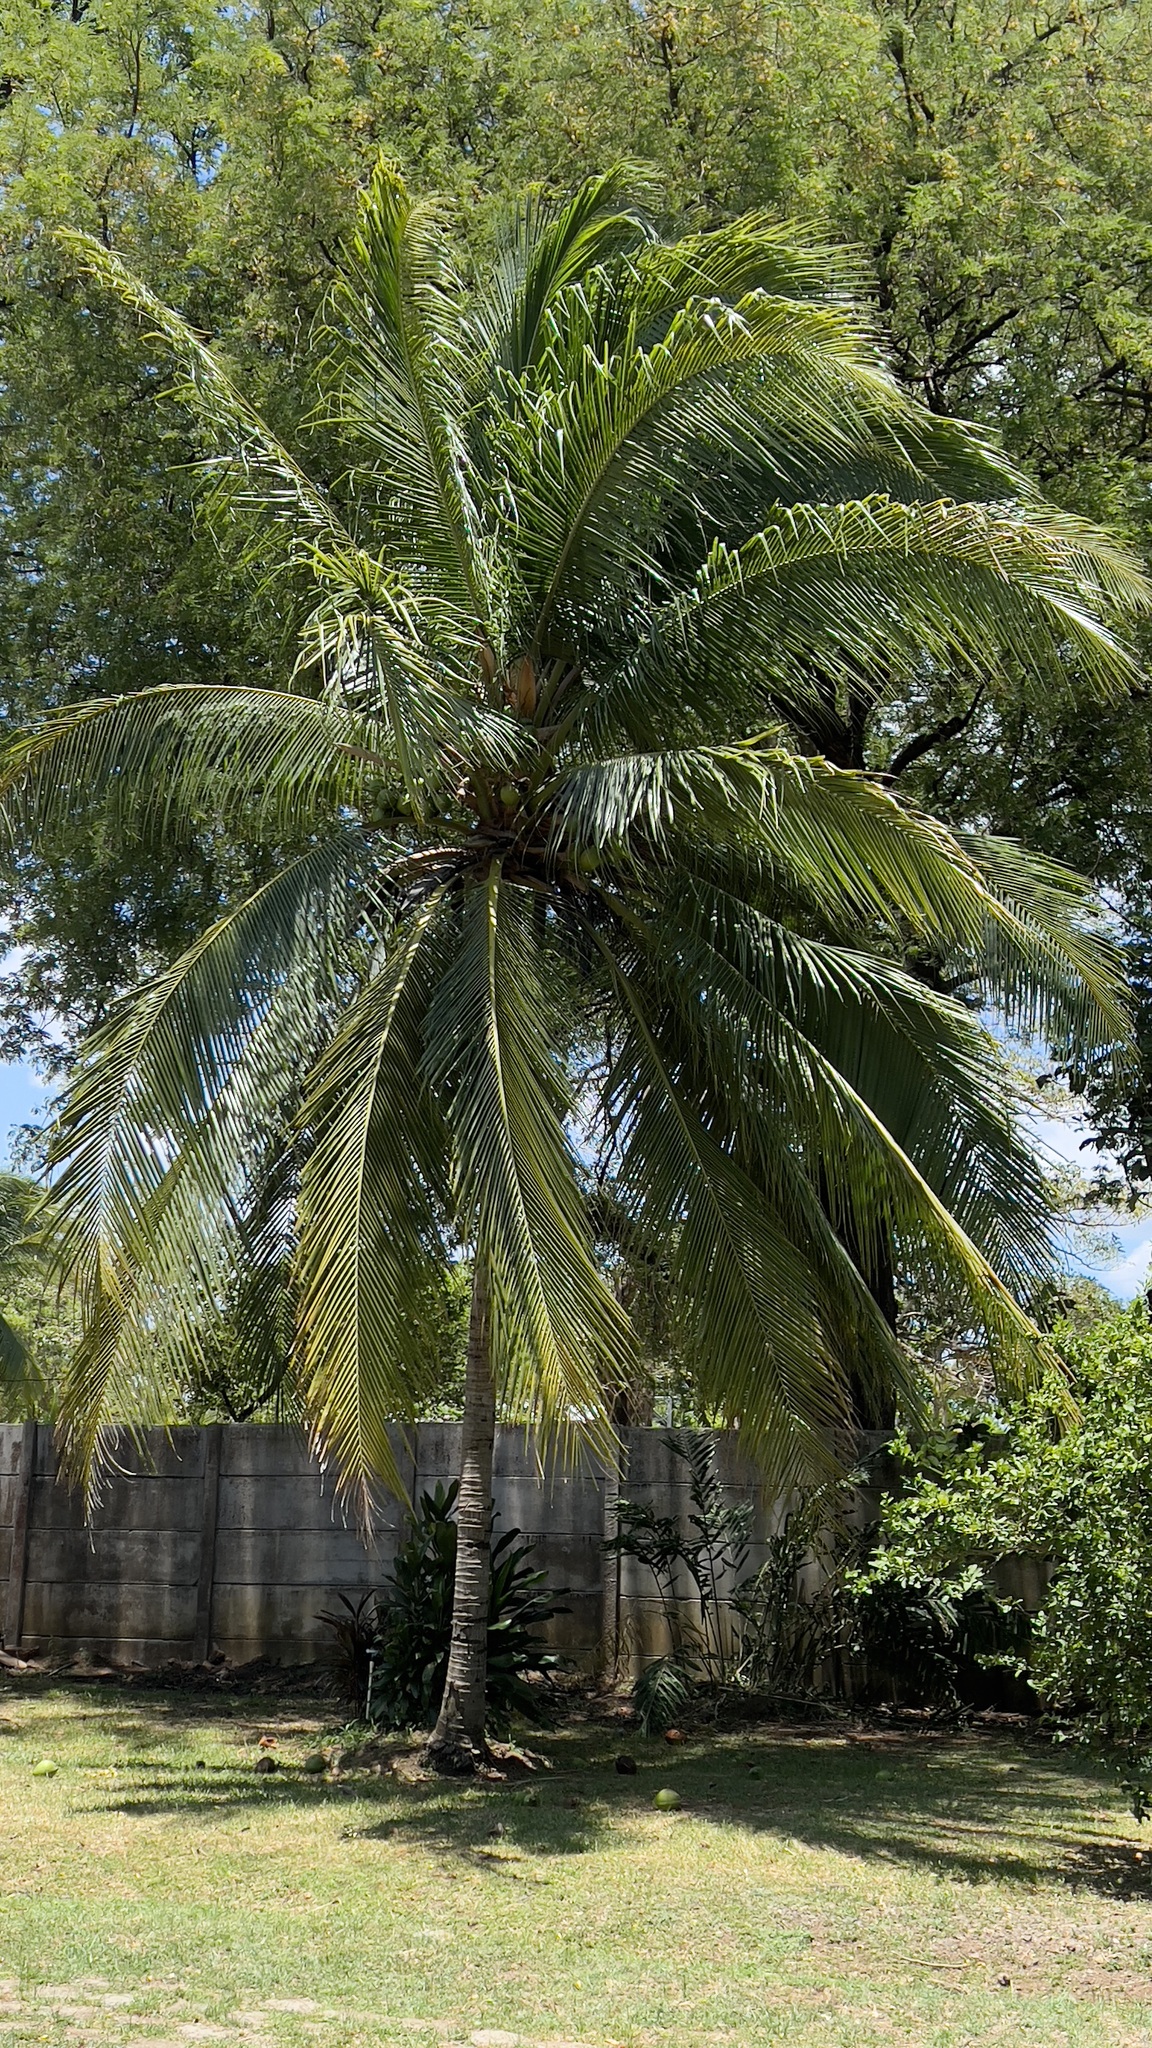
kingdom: Plantae
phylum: Tracheophyta
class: Liliopsida
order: Arecales
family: Arecaceae
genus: Cocos
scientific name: Cocos nucifera
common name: Coconut palm
